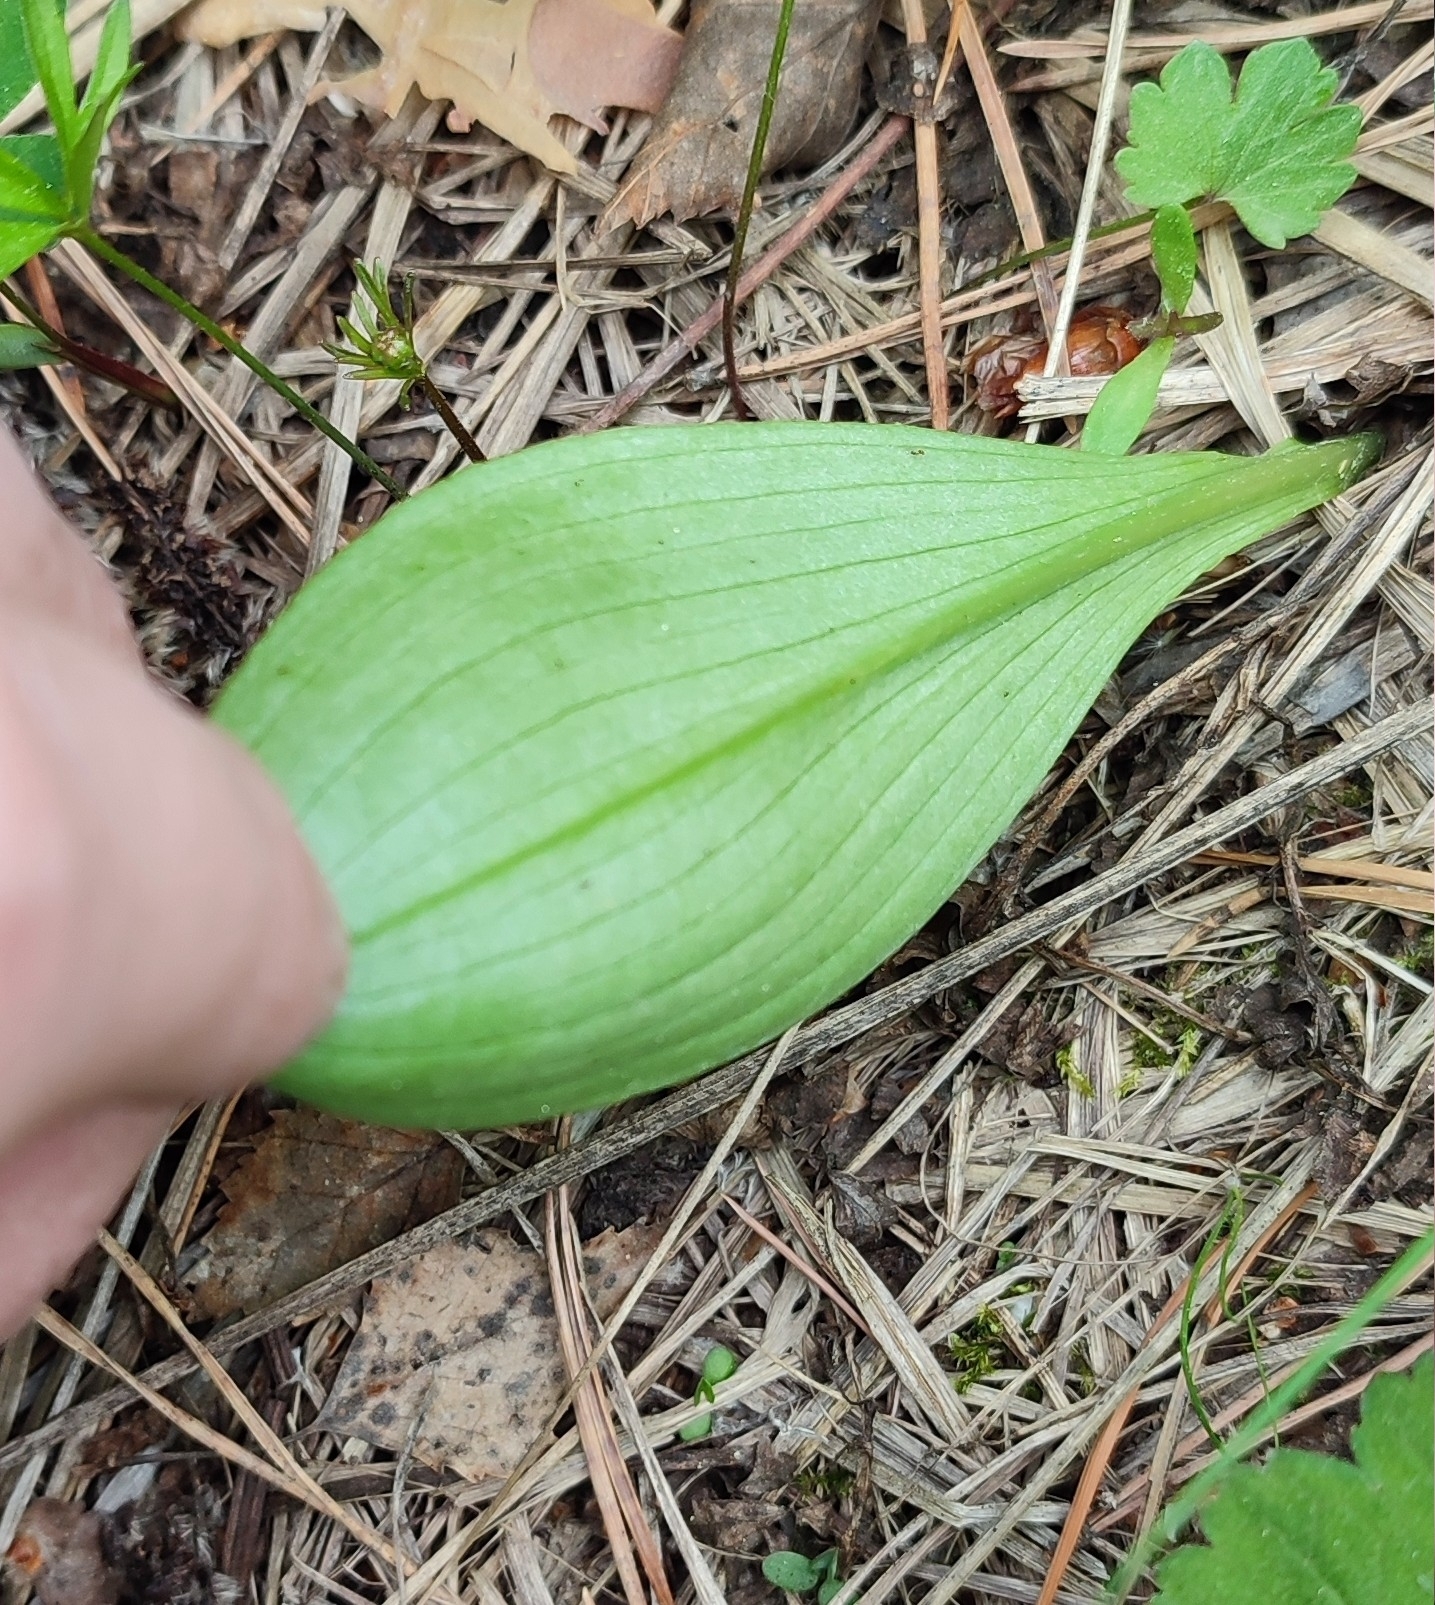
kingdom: Plantae
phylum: Tracheophyta
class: Liliopsida
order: Asparagales
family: Orchidaceae
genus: Platanthera
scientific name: Platanthera bifolia
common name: Lesser butterfly-orchid
